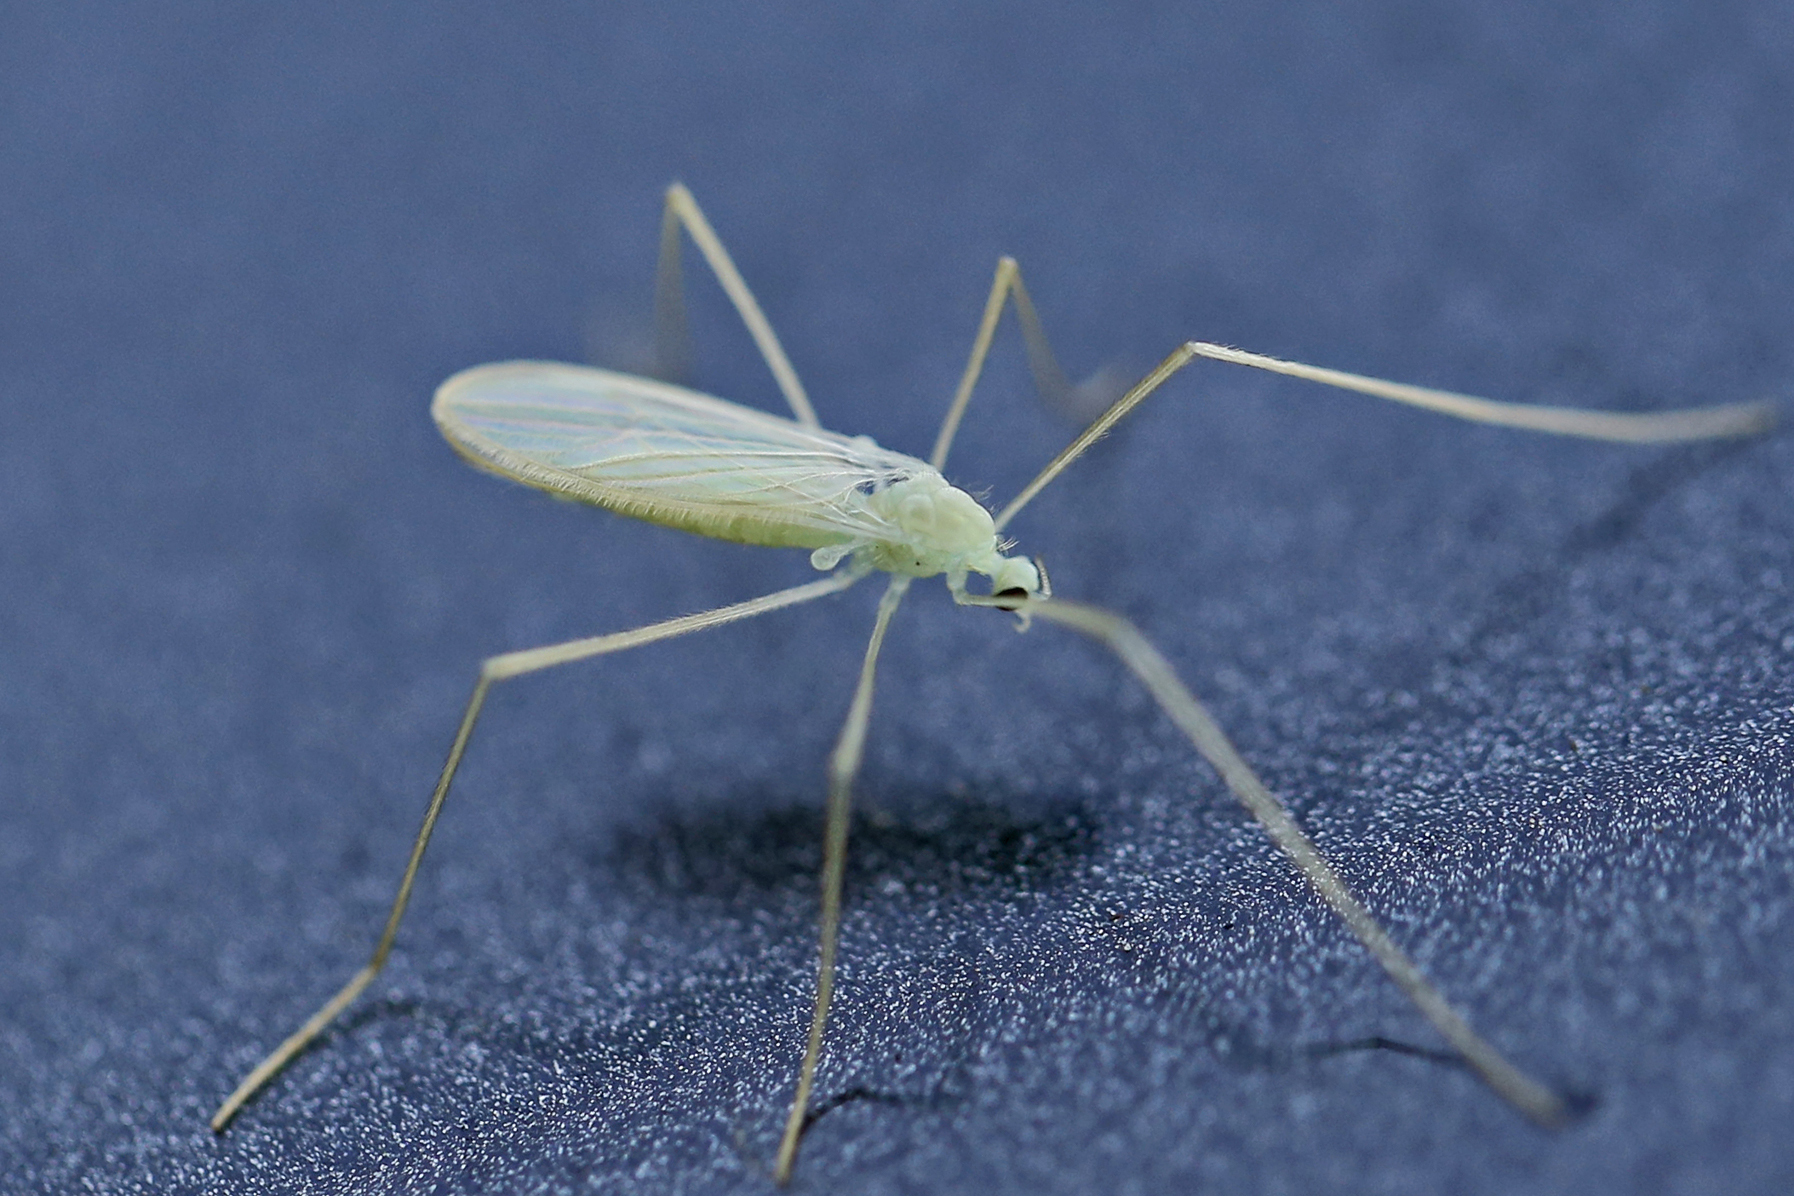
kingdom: Animalia
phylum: Arthropoda
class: Insecta
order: Diptera
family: Limoniidae
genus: Erioptera
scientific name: Erioptera
